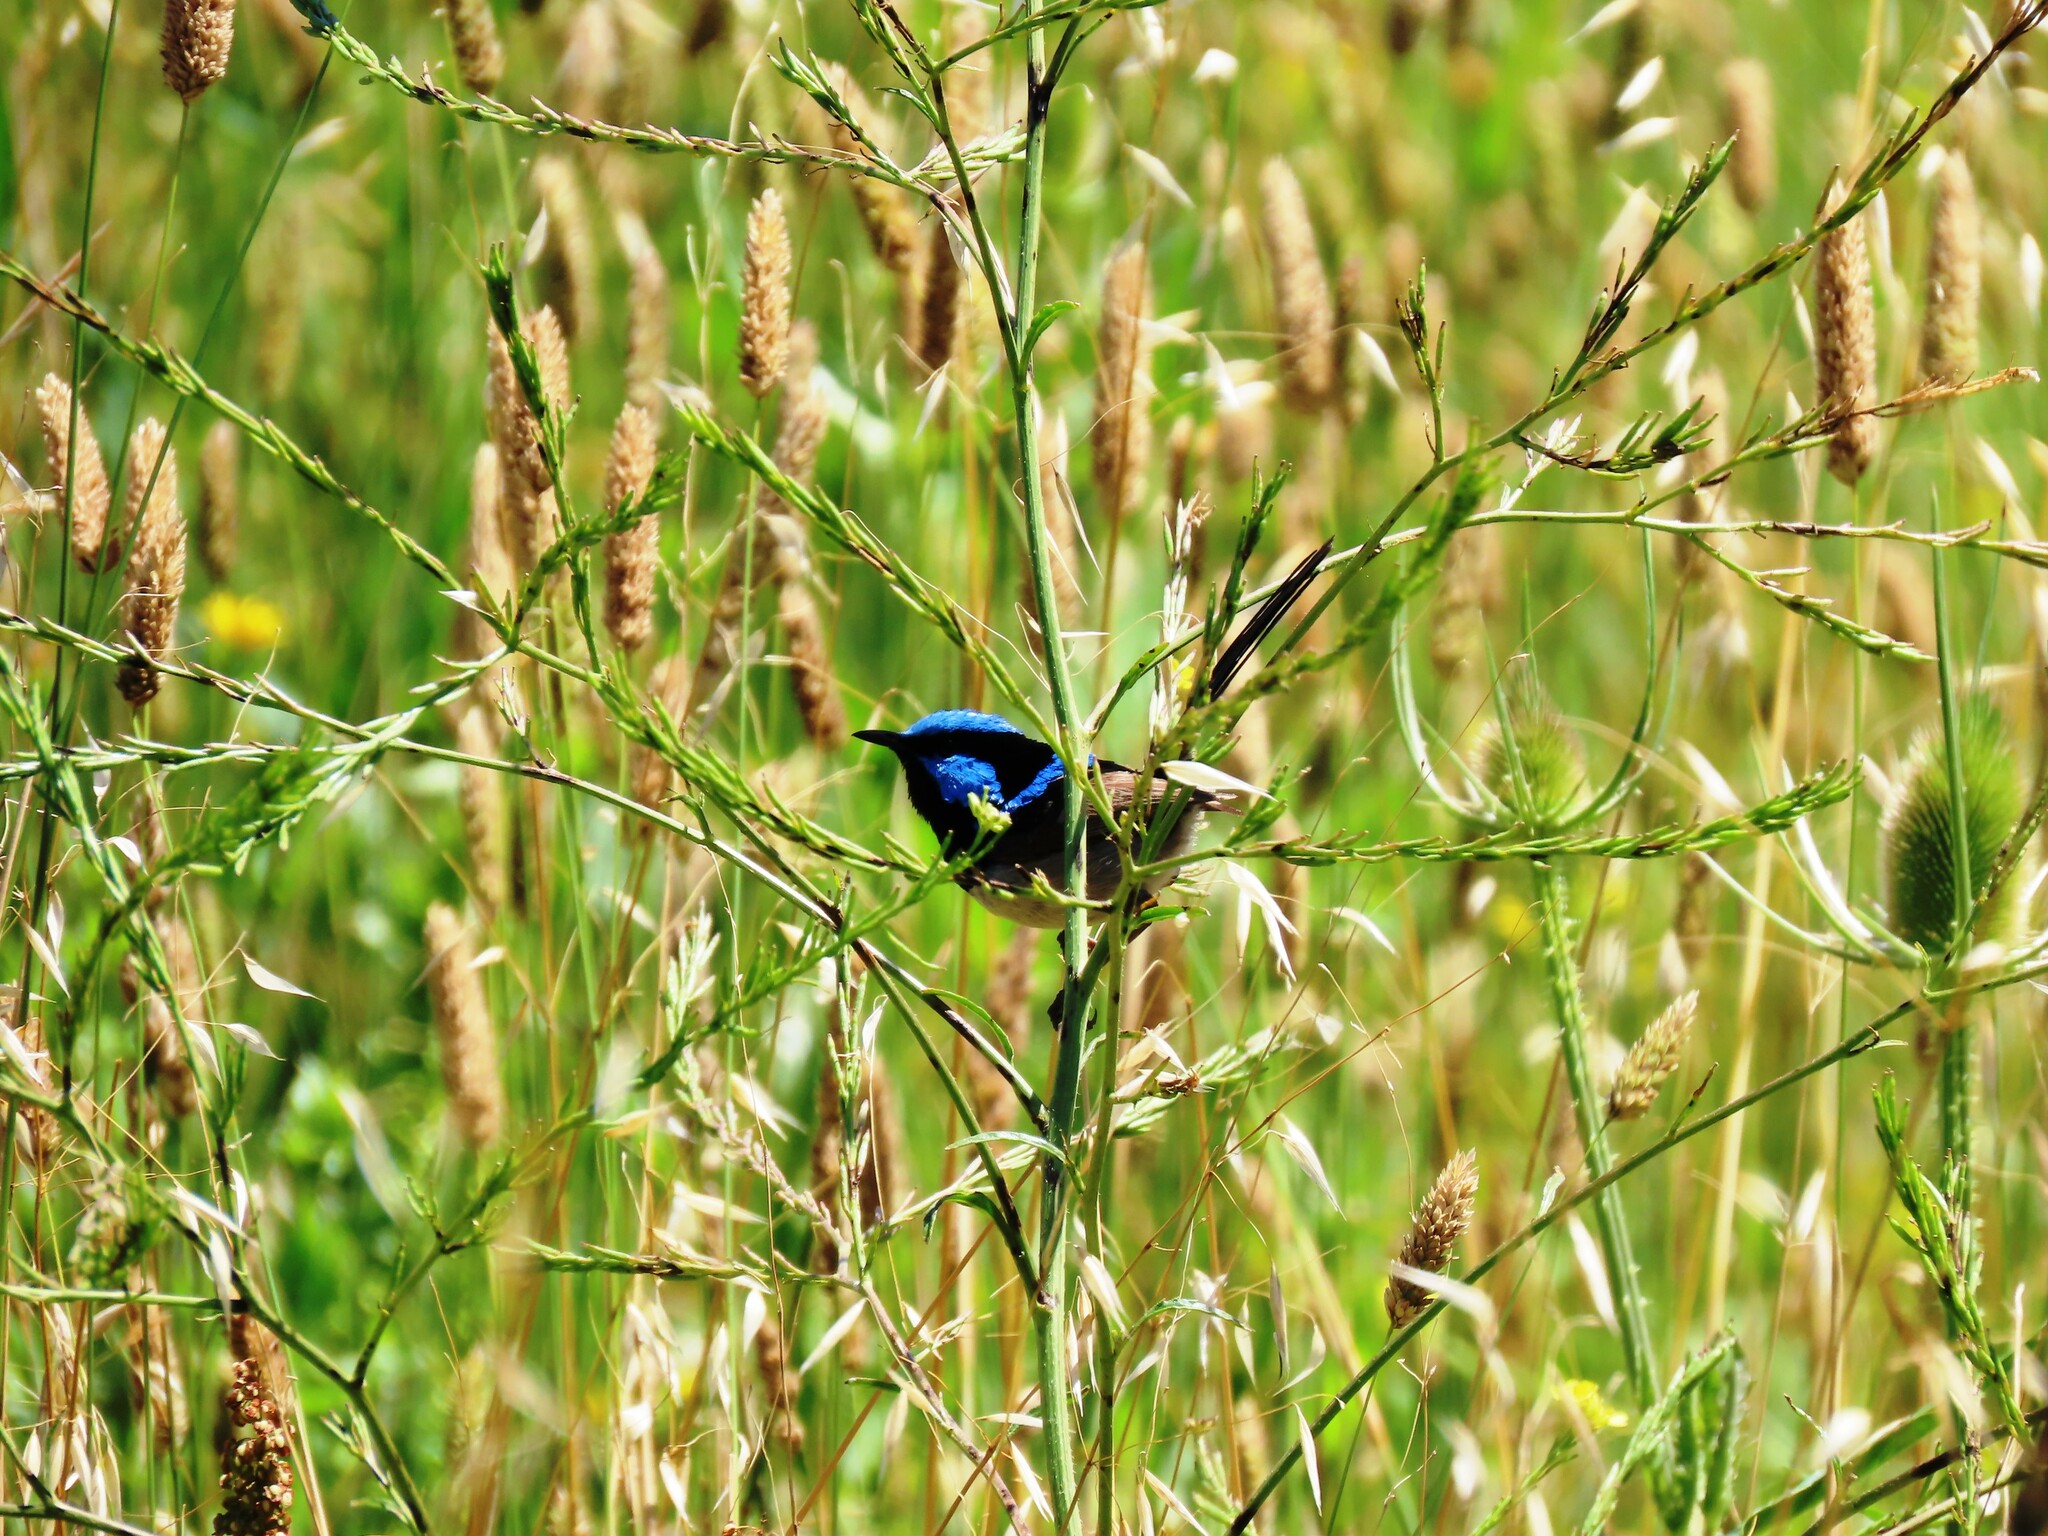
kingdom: Animalia
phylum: Chordata
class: Aves
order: Passeriformes
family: Maluridae
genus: Malurus
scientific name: Malurus cyaneus
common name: Superb fairywren
